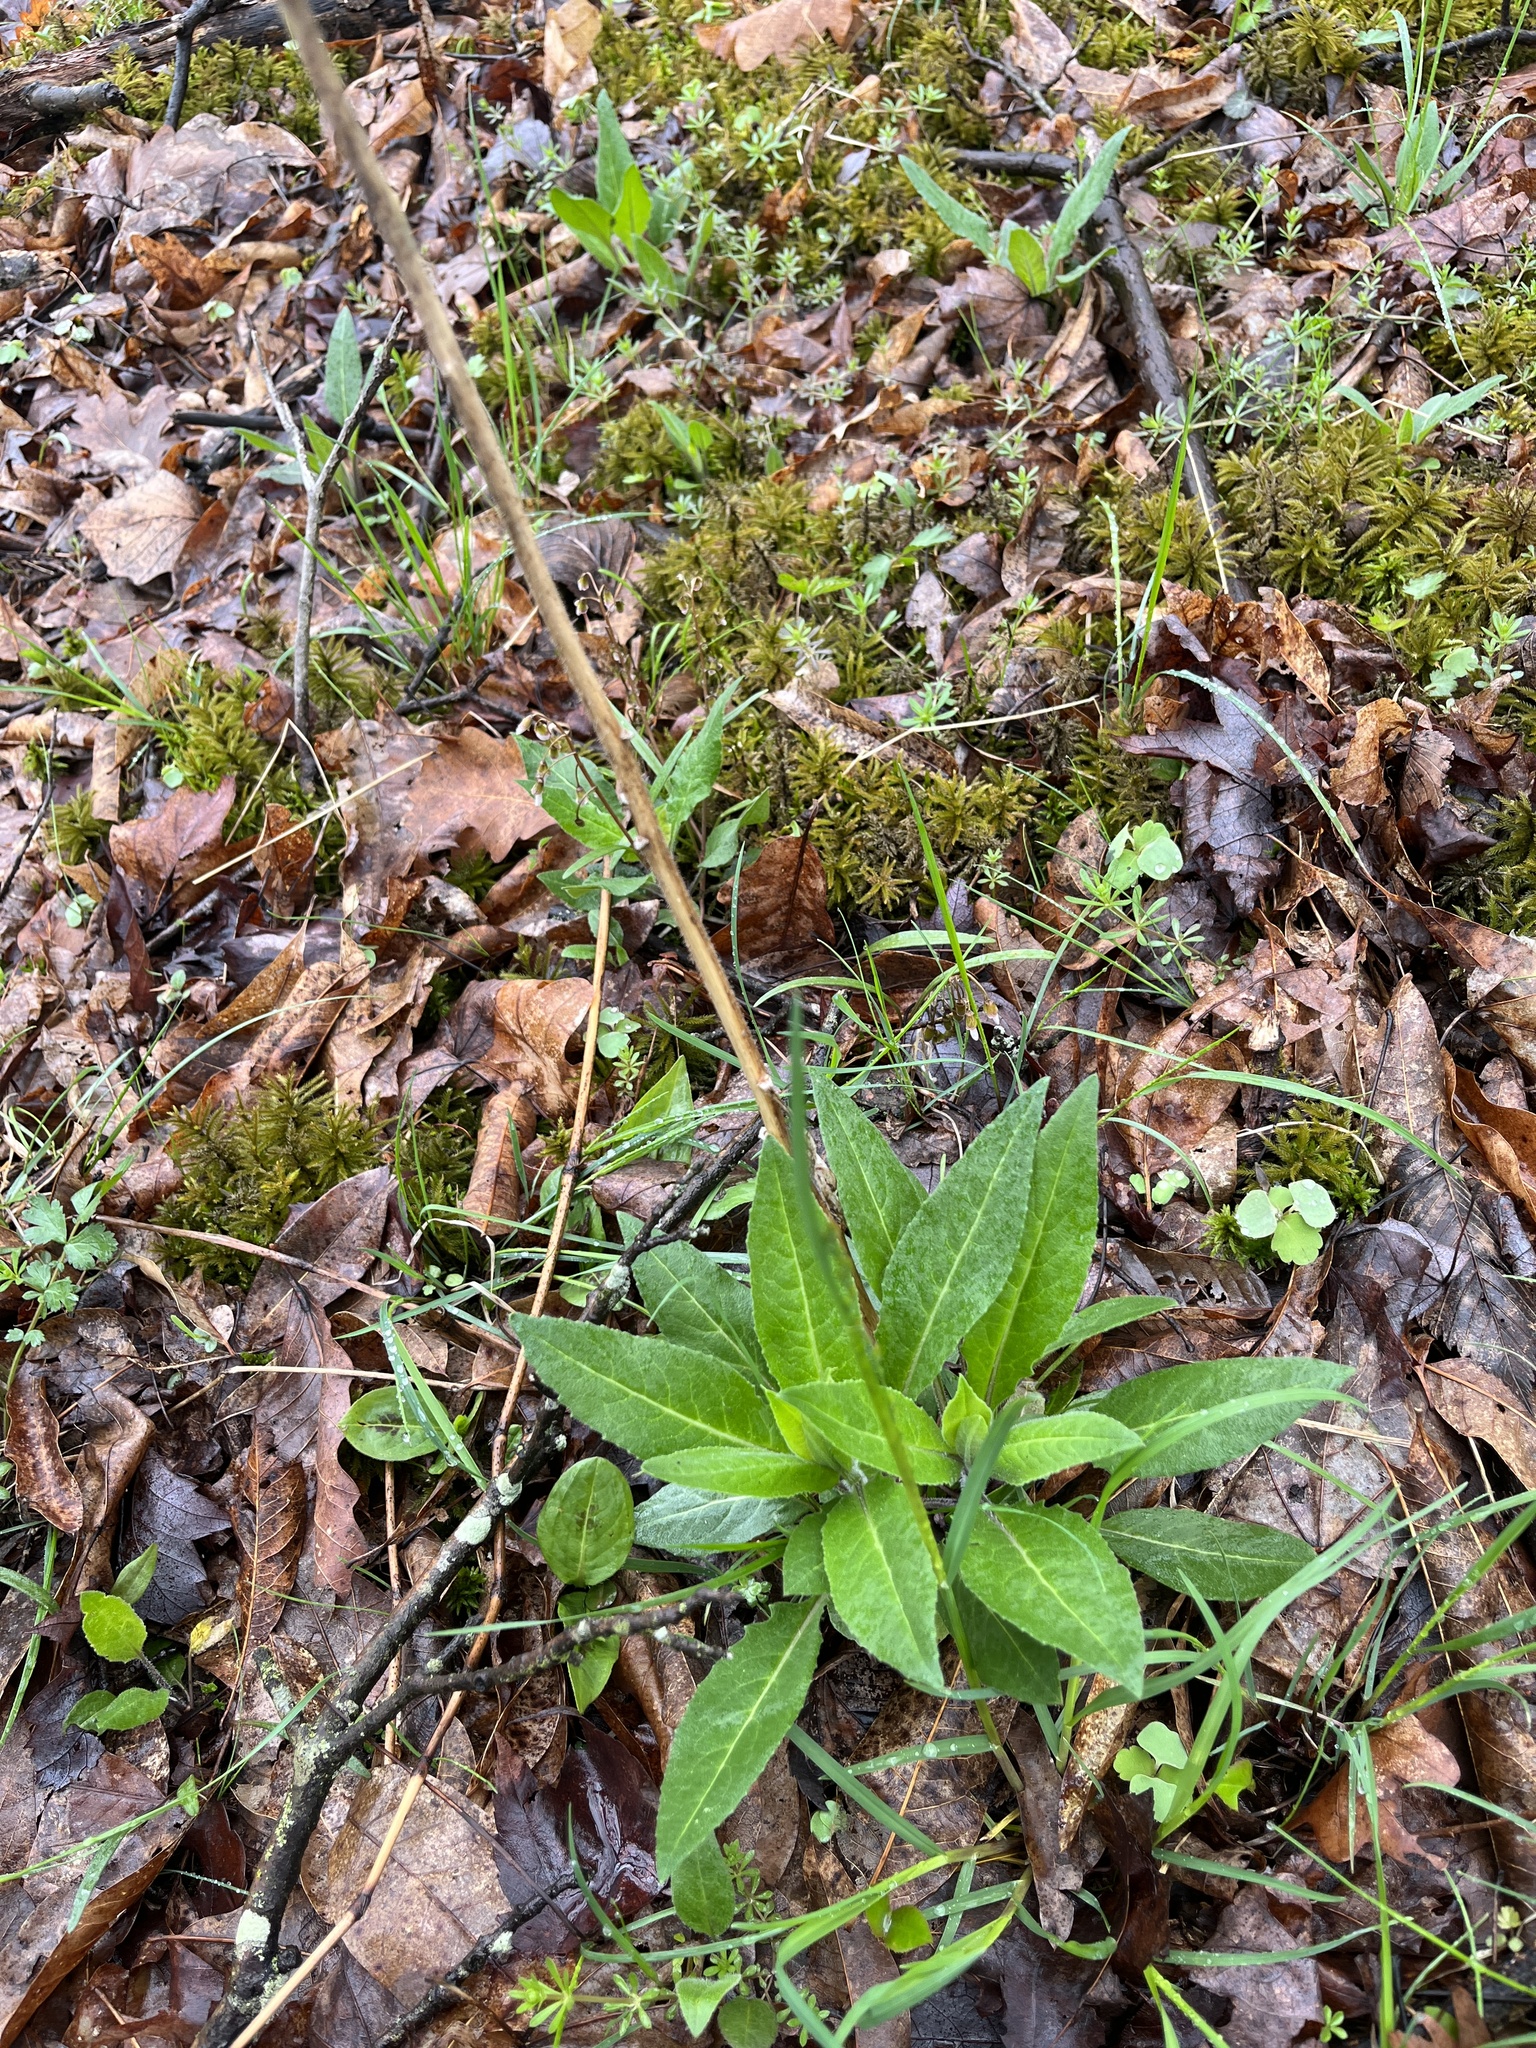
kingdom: Plantae
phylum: Tracheophyta
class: Magnoliopsida
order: Brassicales
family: Brassicaceae
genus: Hesperis
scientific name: Hesperis matronalis
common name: Dame's-violet
